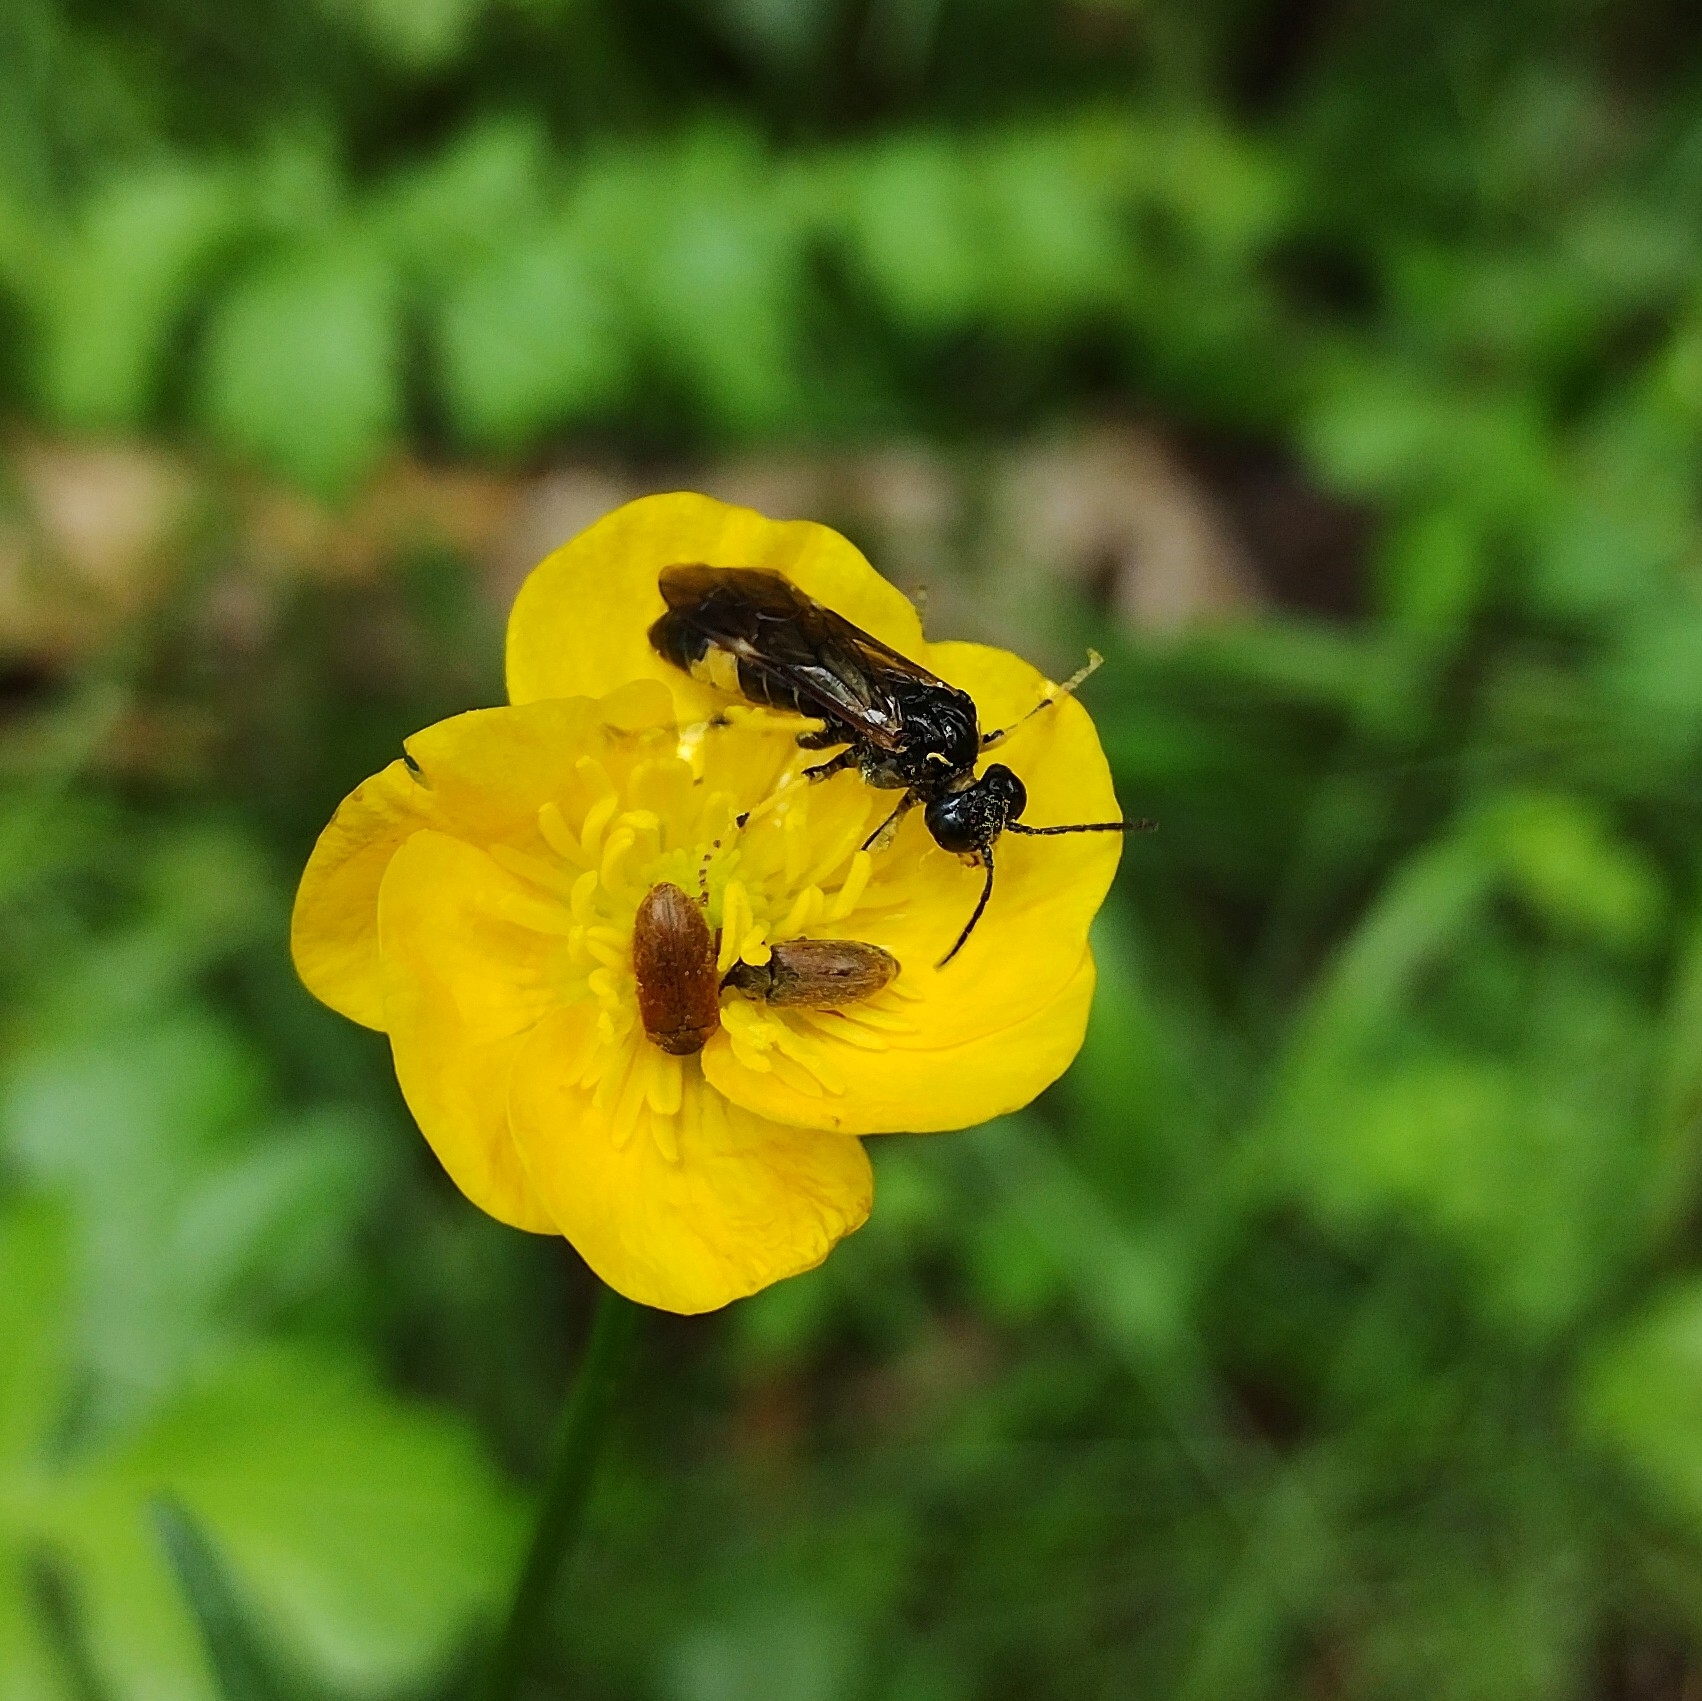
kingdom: Animalia
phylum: Arthropoda
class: Insecta
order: Hymenoptera
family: Tenthredinidae
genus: Paratenthredo
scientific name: Paratenthredo frauenfeldii
